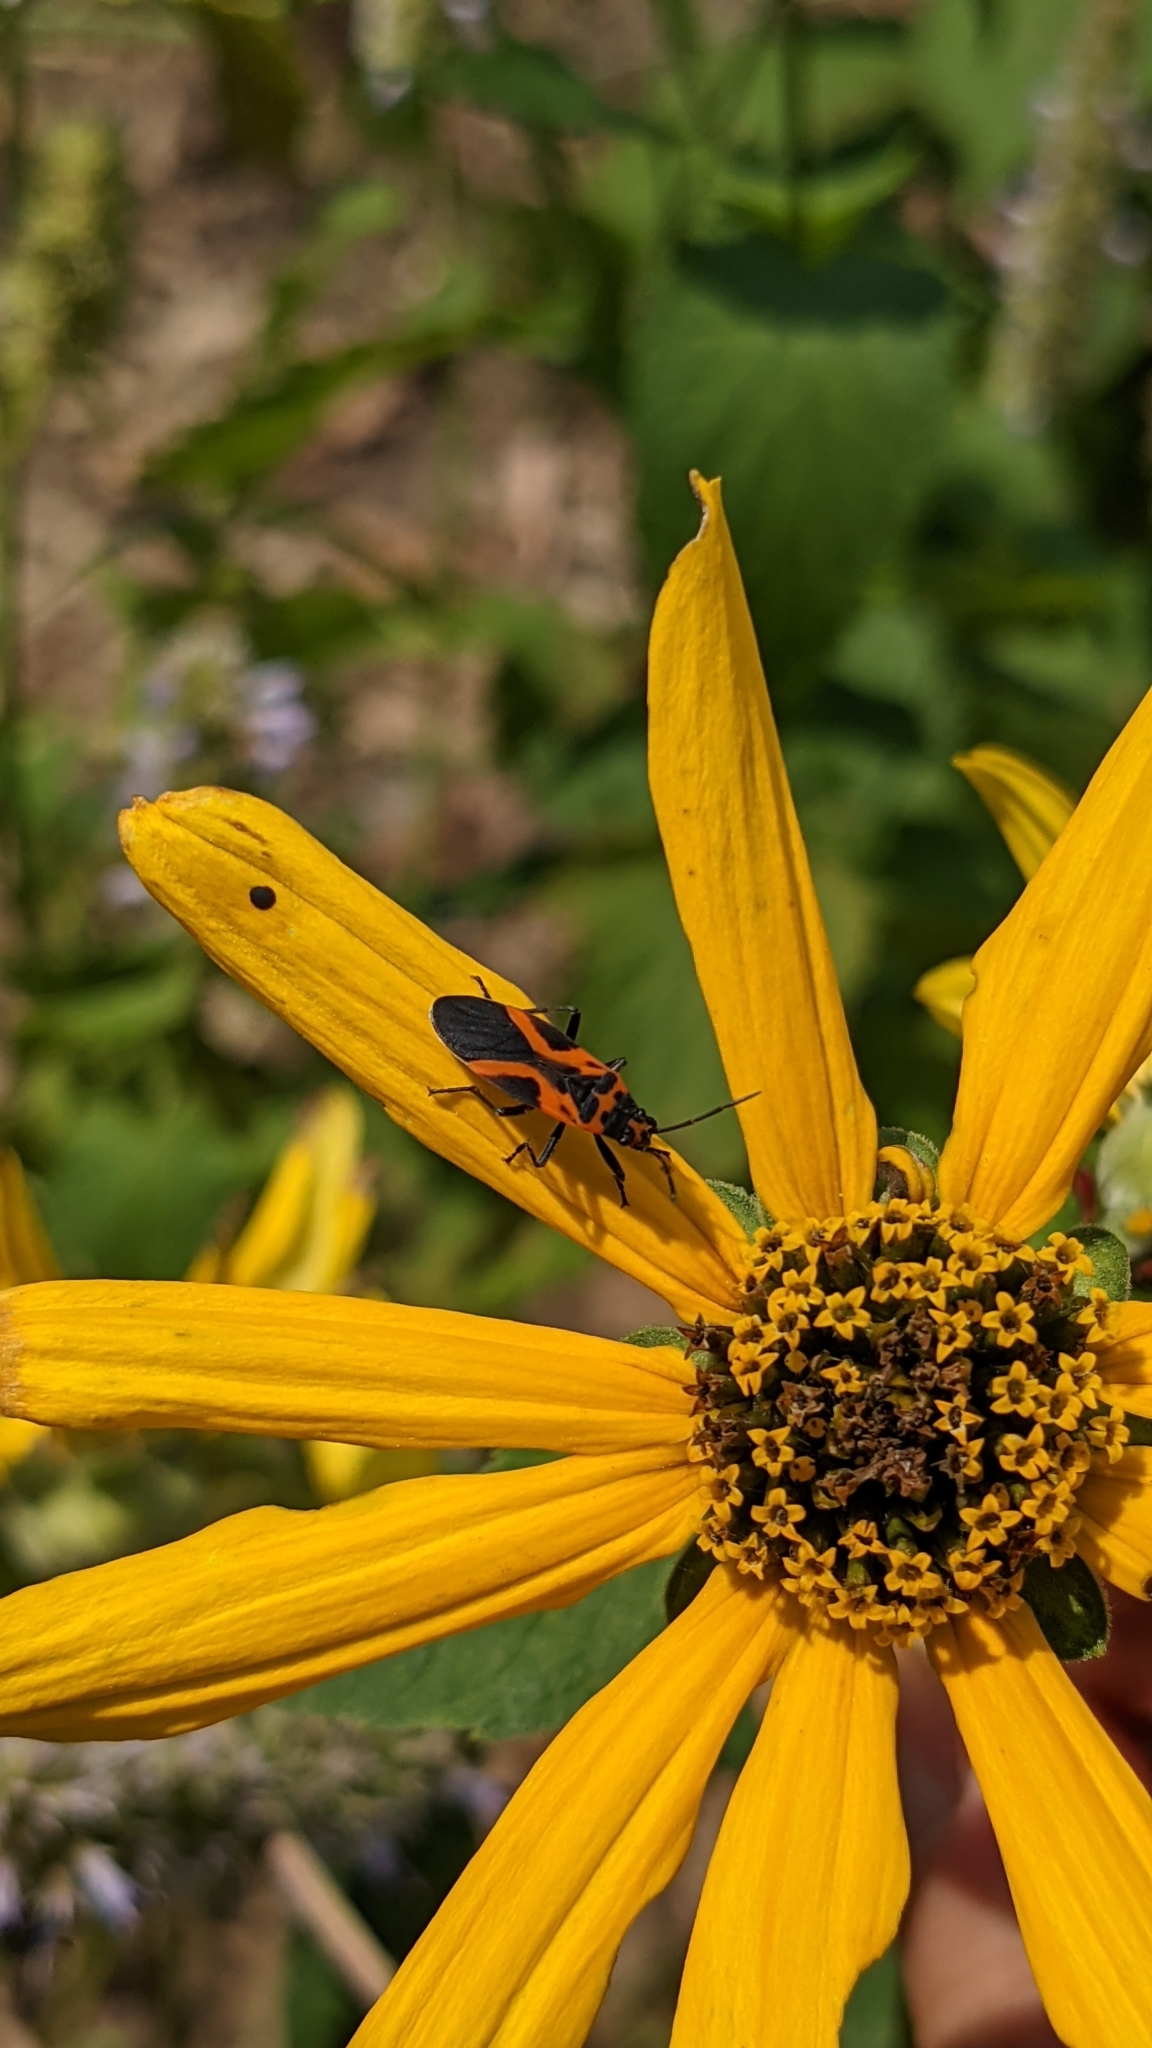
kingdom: Animalia
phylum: Arthropoda
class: Insecta
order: Hemiptera
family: Lygaeidae
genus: Lygaeus
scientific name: Lygaeus turcicus
